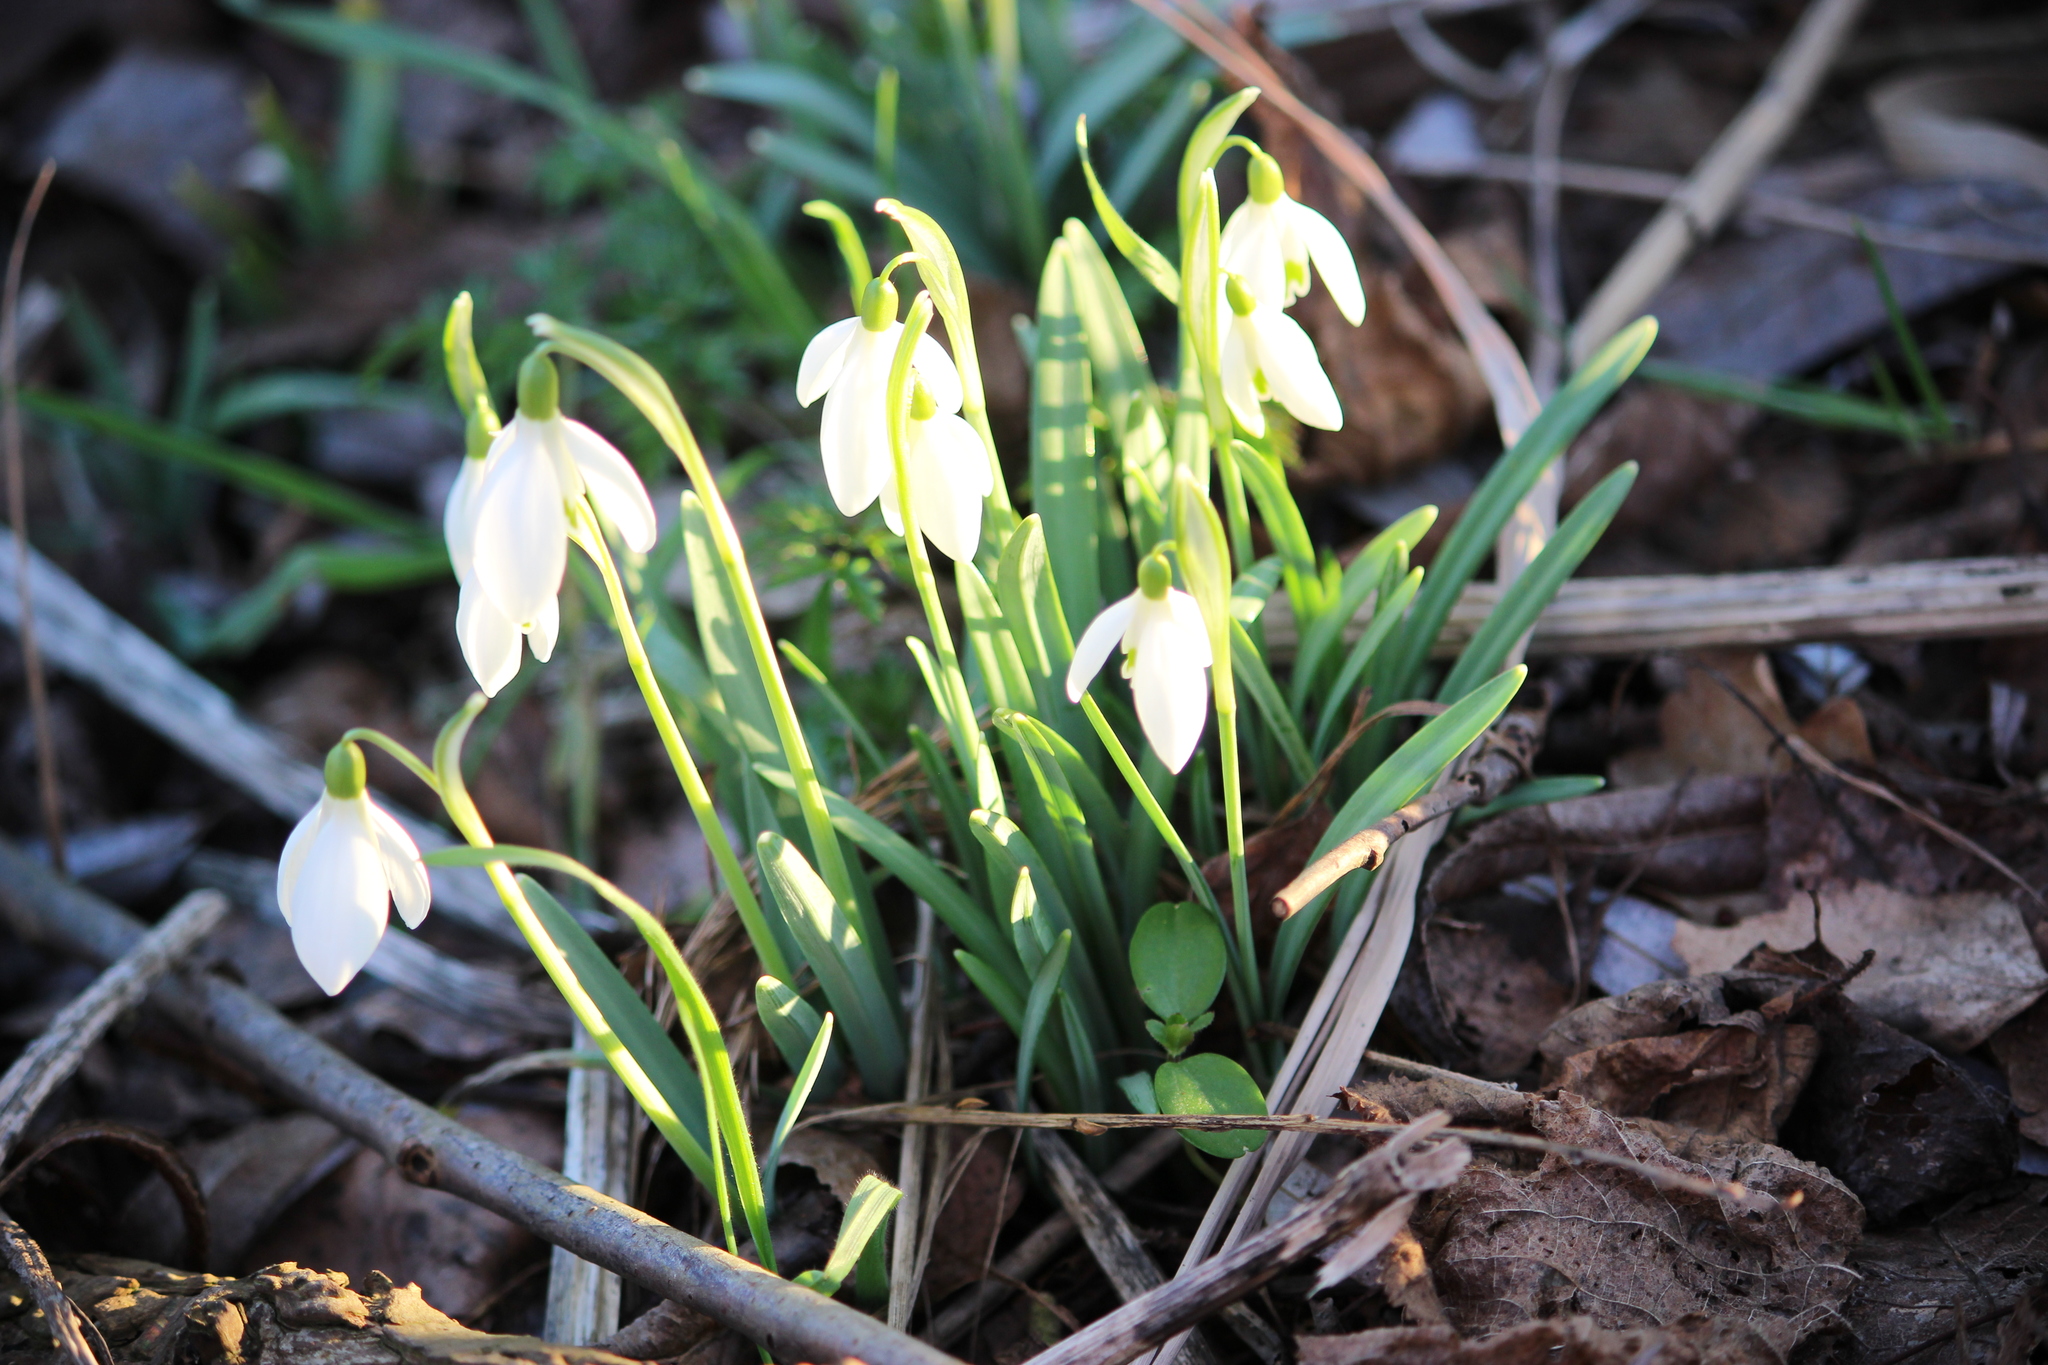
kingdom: Plantae
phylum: Tracheophyta
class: Liliopsida
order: Asparagales
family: Amaryllidaceae
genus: Galanthus
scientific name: Galanthus nivalis
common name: Snowdrop
